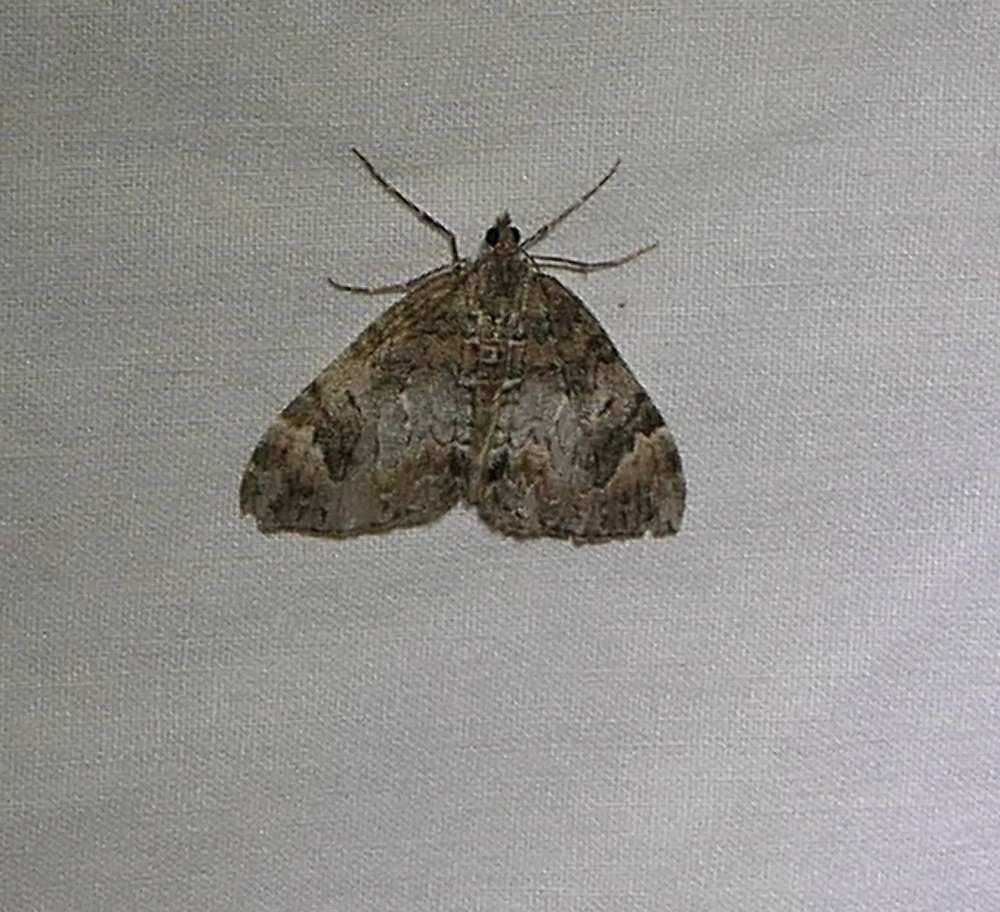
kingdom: Animalia
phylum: Arthropoda
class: Insecta
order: Lepidoptera
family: Geometridae
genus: Dysstroma
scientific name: Dysstroma citrata
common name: Dark marbled carpet
